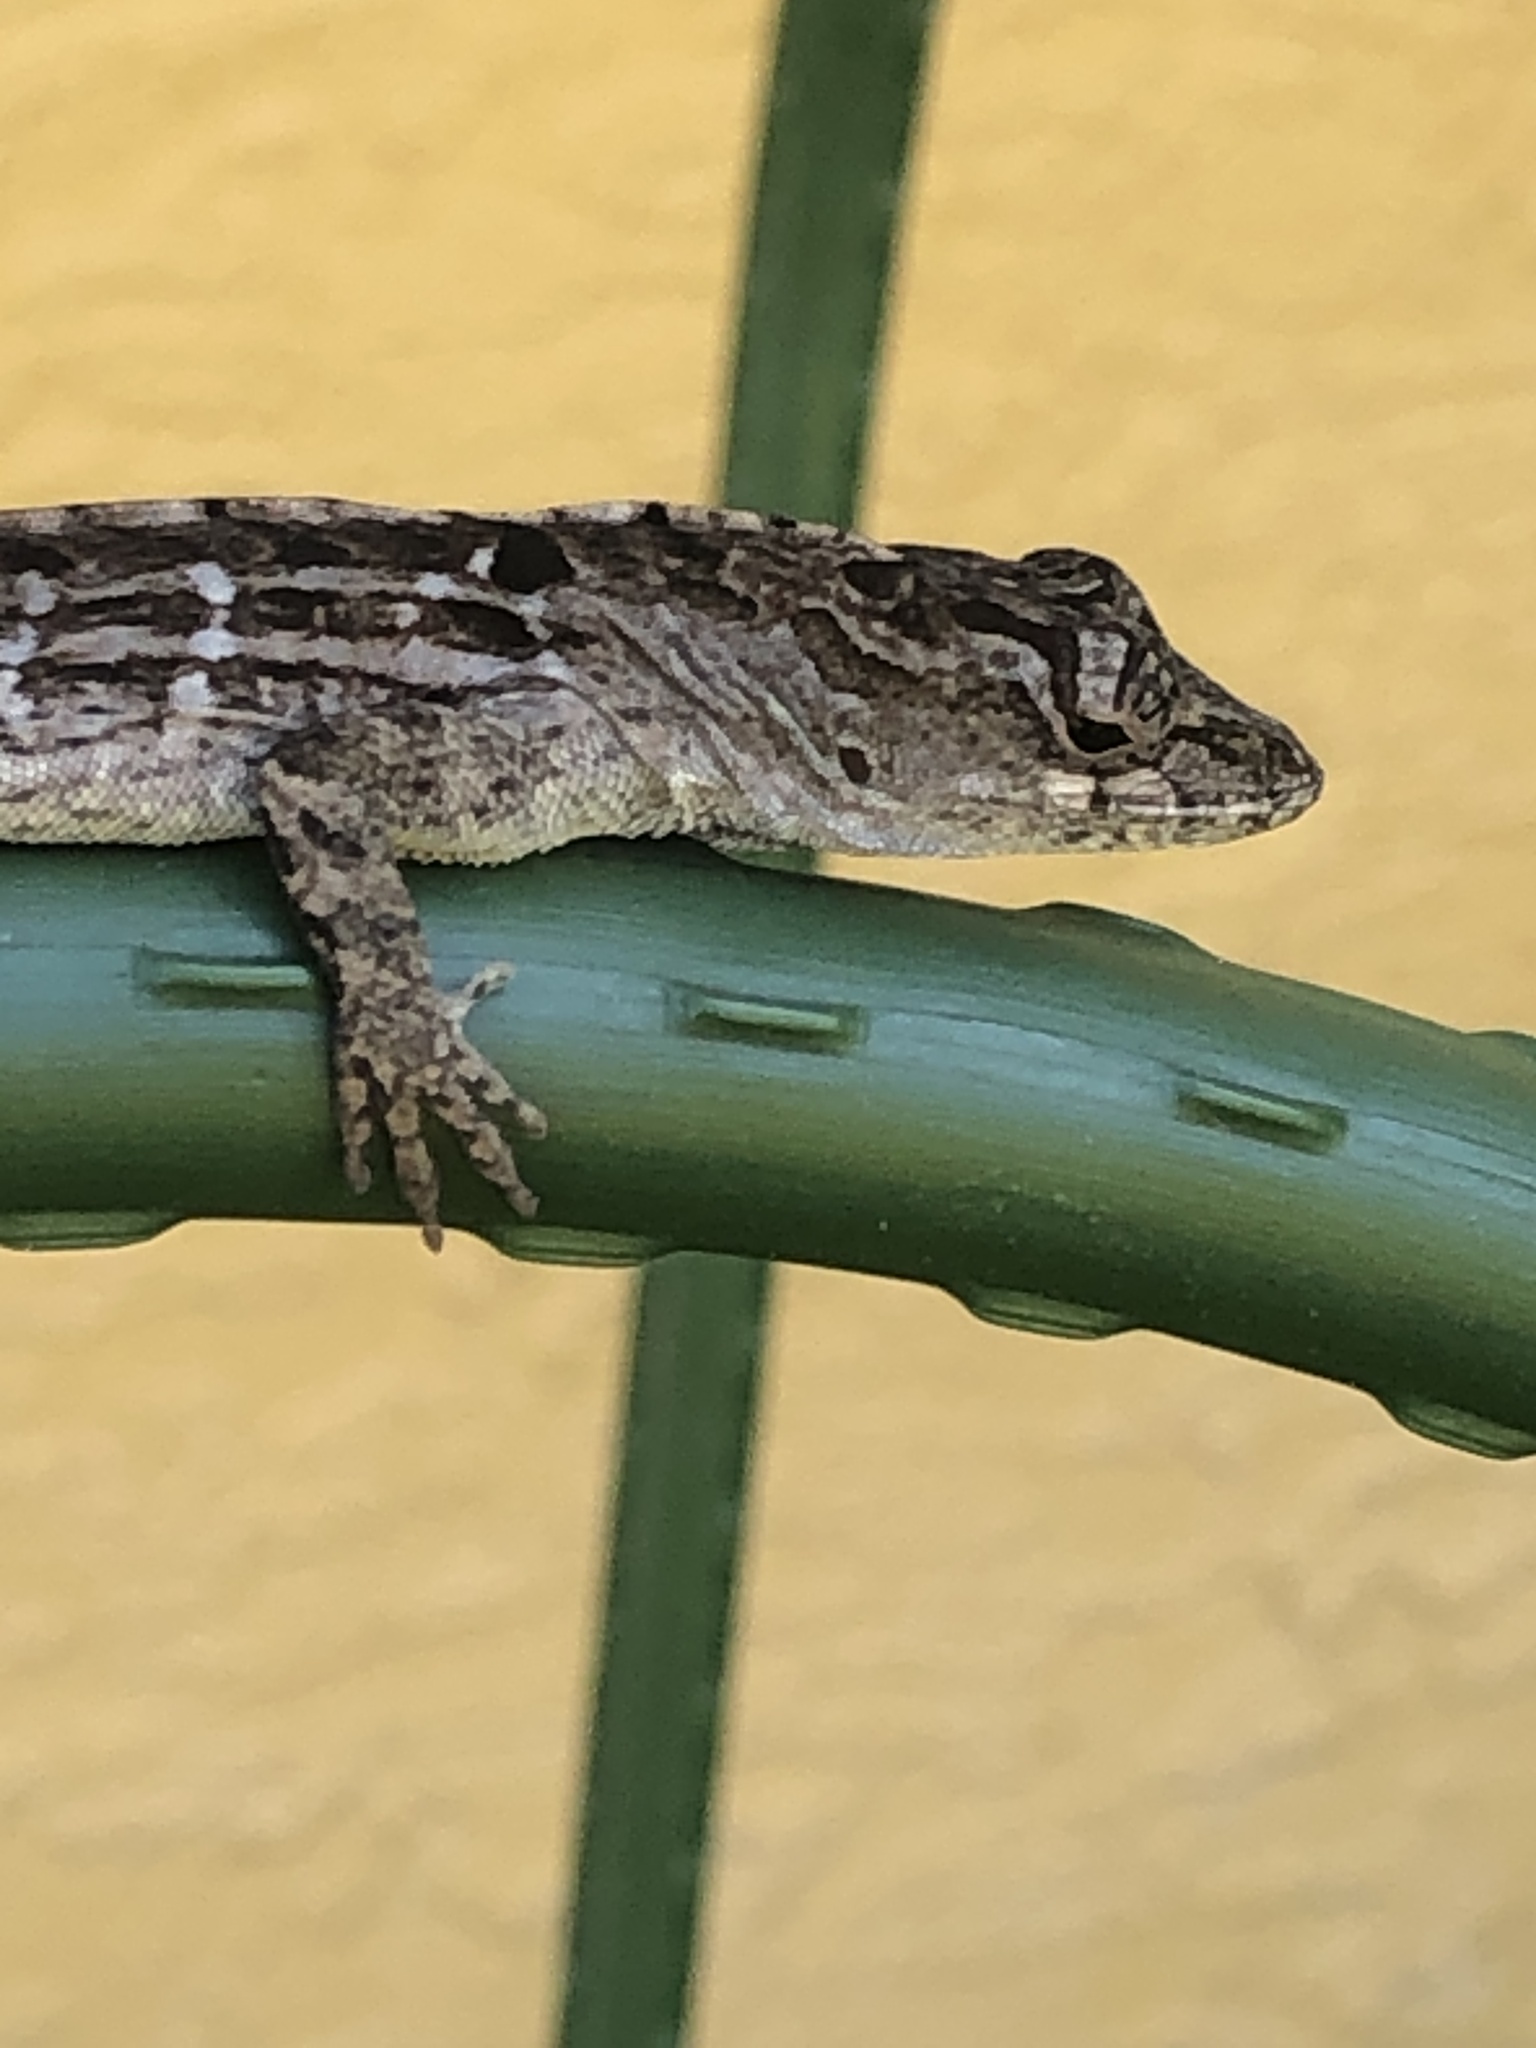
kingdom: Animalia
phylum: Chordata
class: Squamata
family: Dactyloidae
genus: Anolis
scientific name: Anolis sagrei
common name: Brown anole
